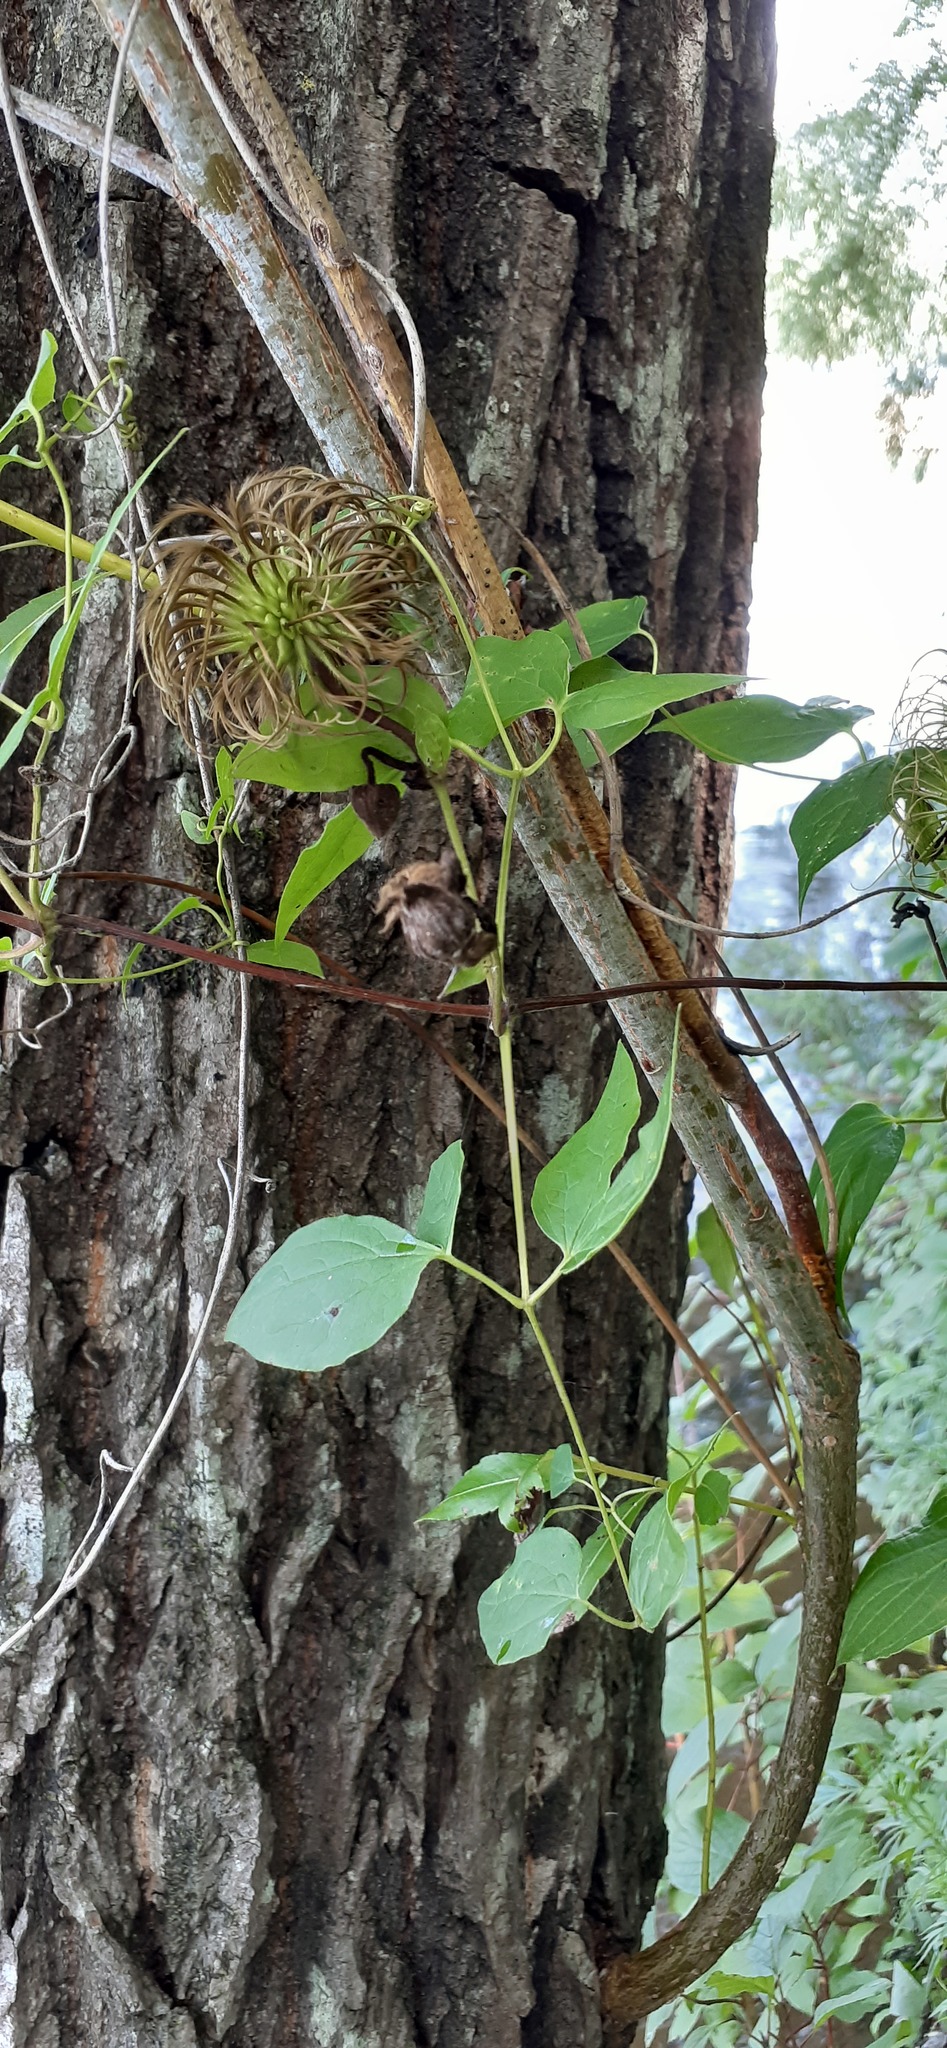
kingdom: Plantae
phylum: Tracheophyta
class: Magnoliopsida
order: Ranunculales
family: Ranunculaceae
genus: Clematis
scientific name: Clematis fusca
